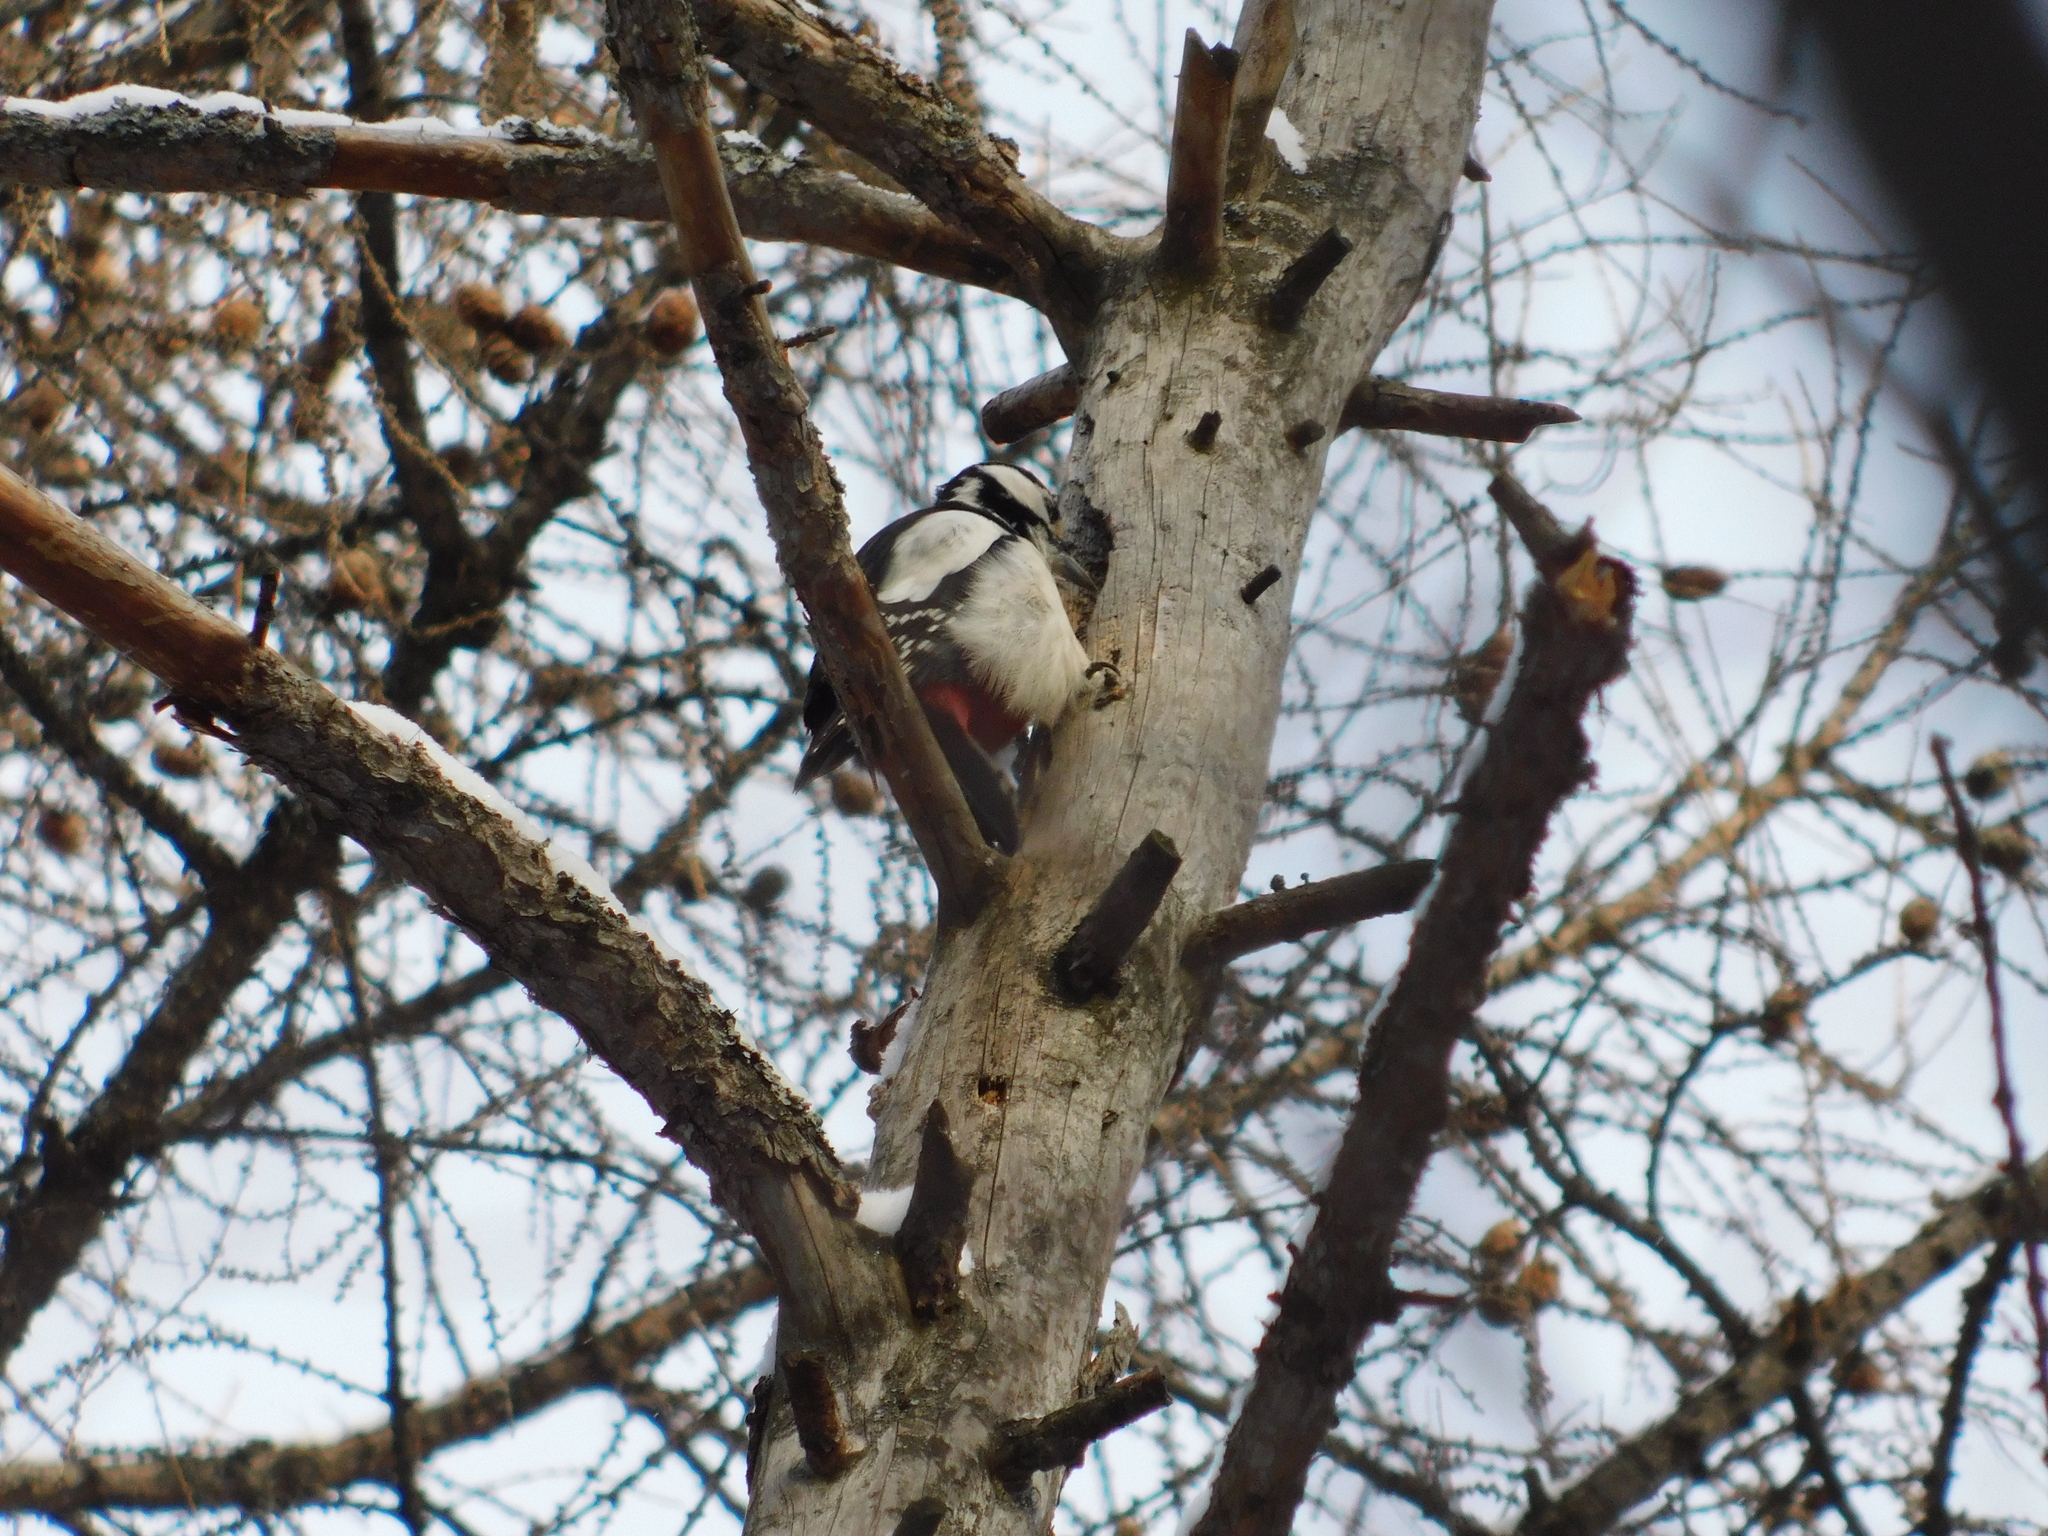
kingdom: Animalia
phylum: Chordata
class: Aves
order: Piciformes
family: Picidae
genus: Dendrocopos
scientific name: Dendrocopos major
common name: Great spotted woodpecker
